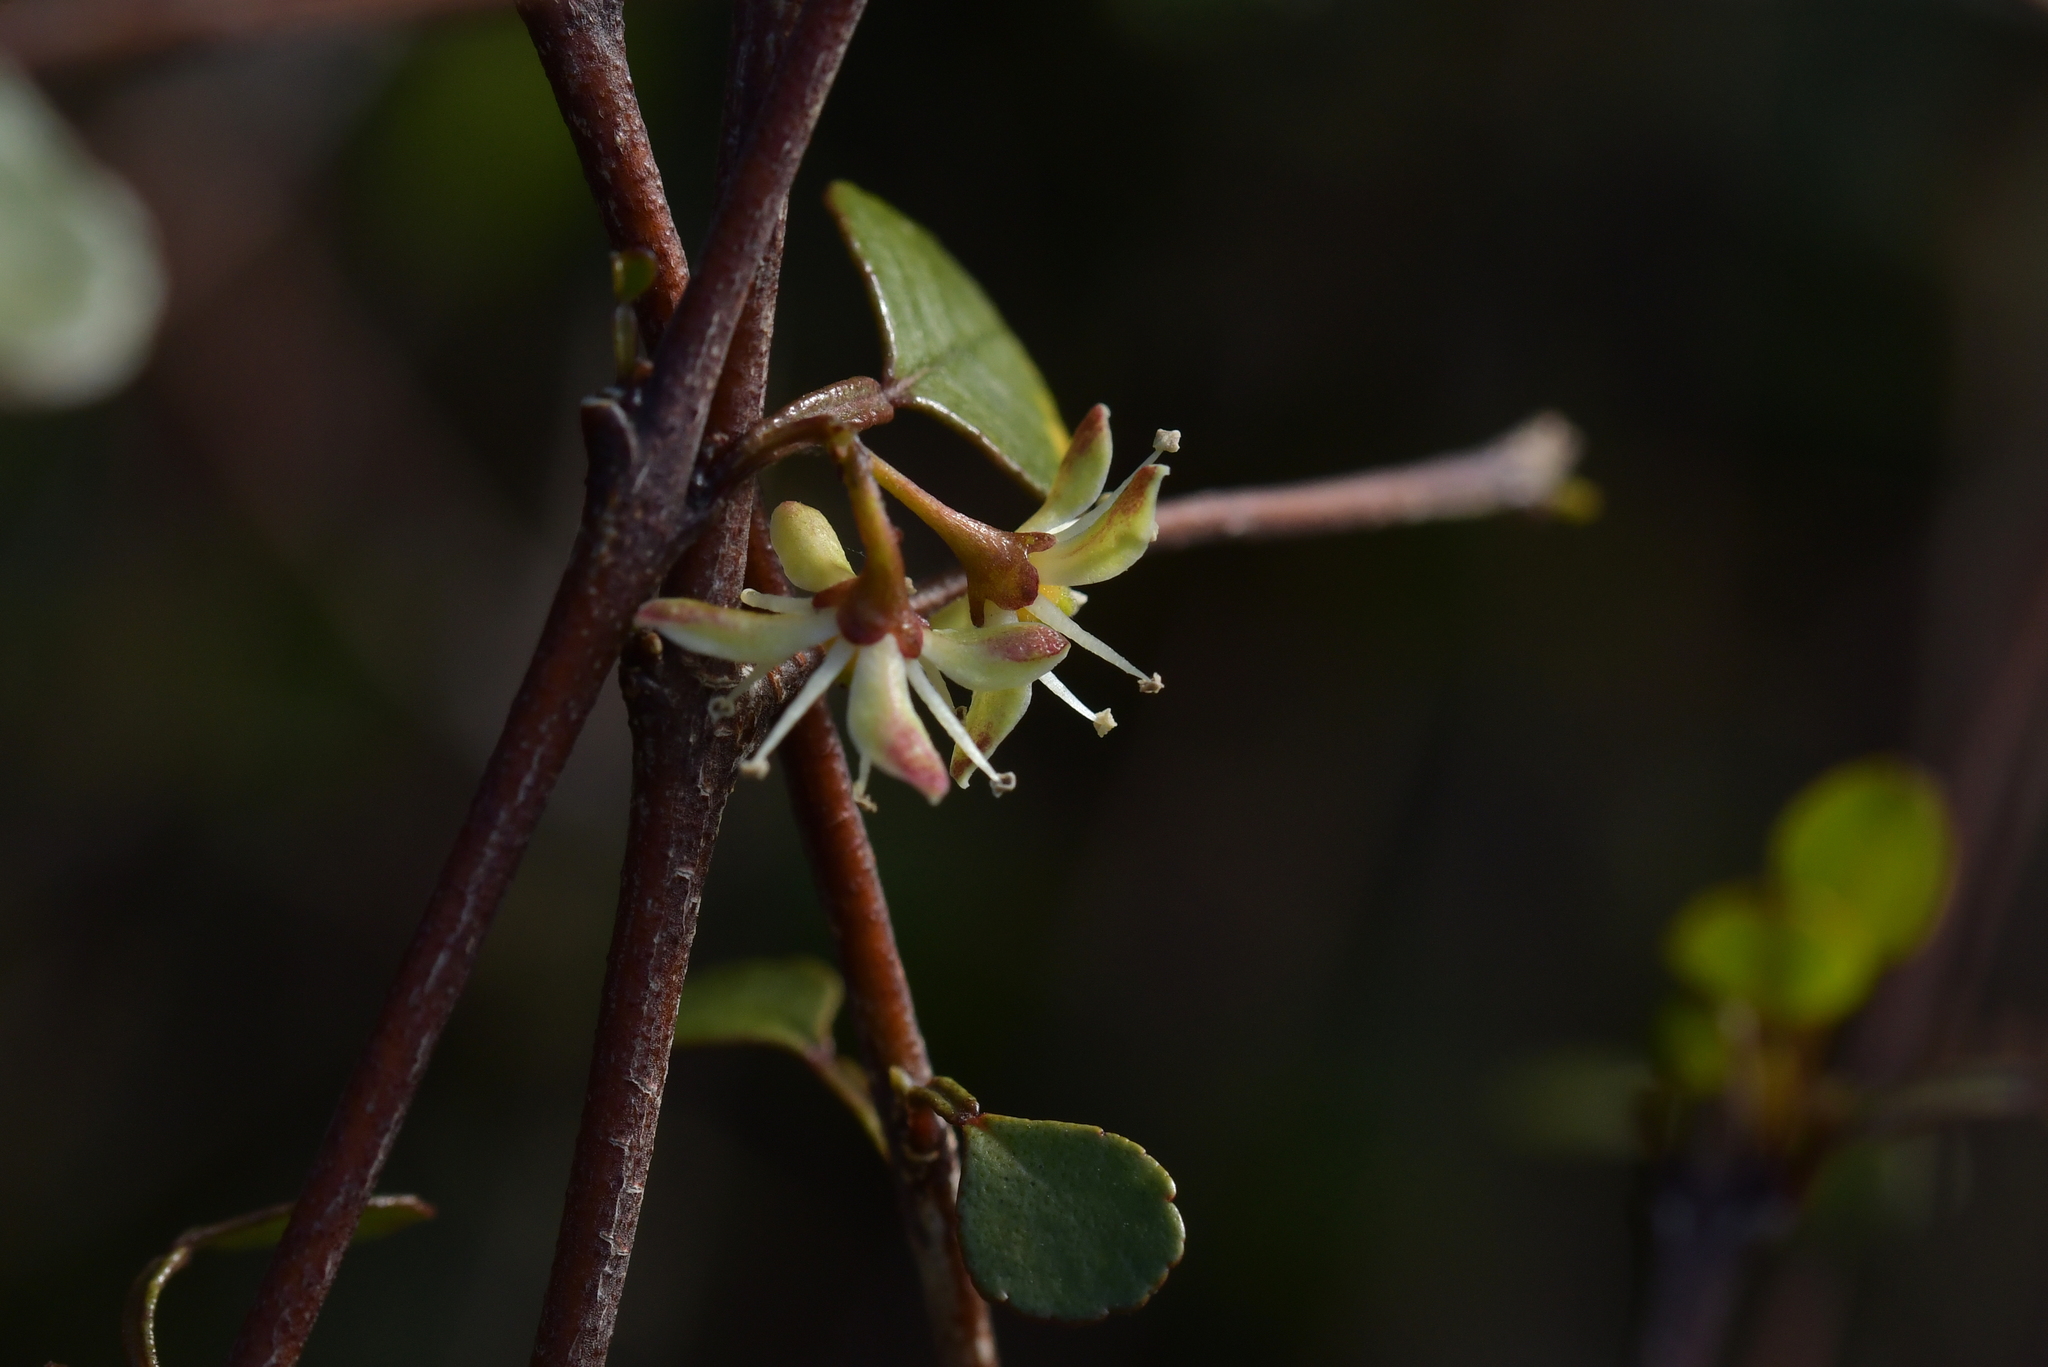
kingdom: Plantae
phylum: Tracheophyta
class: Magnoliopsida
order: Sapindales
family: Rutaceae
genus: Melicope
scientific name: Melicope simplex
